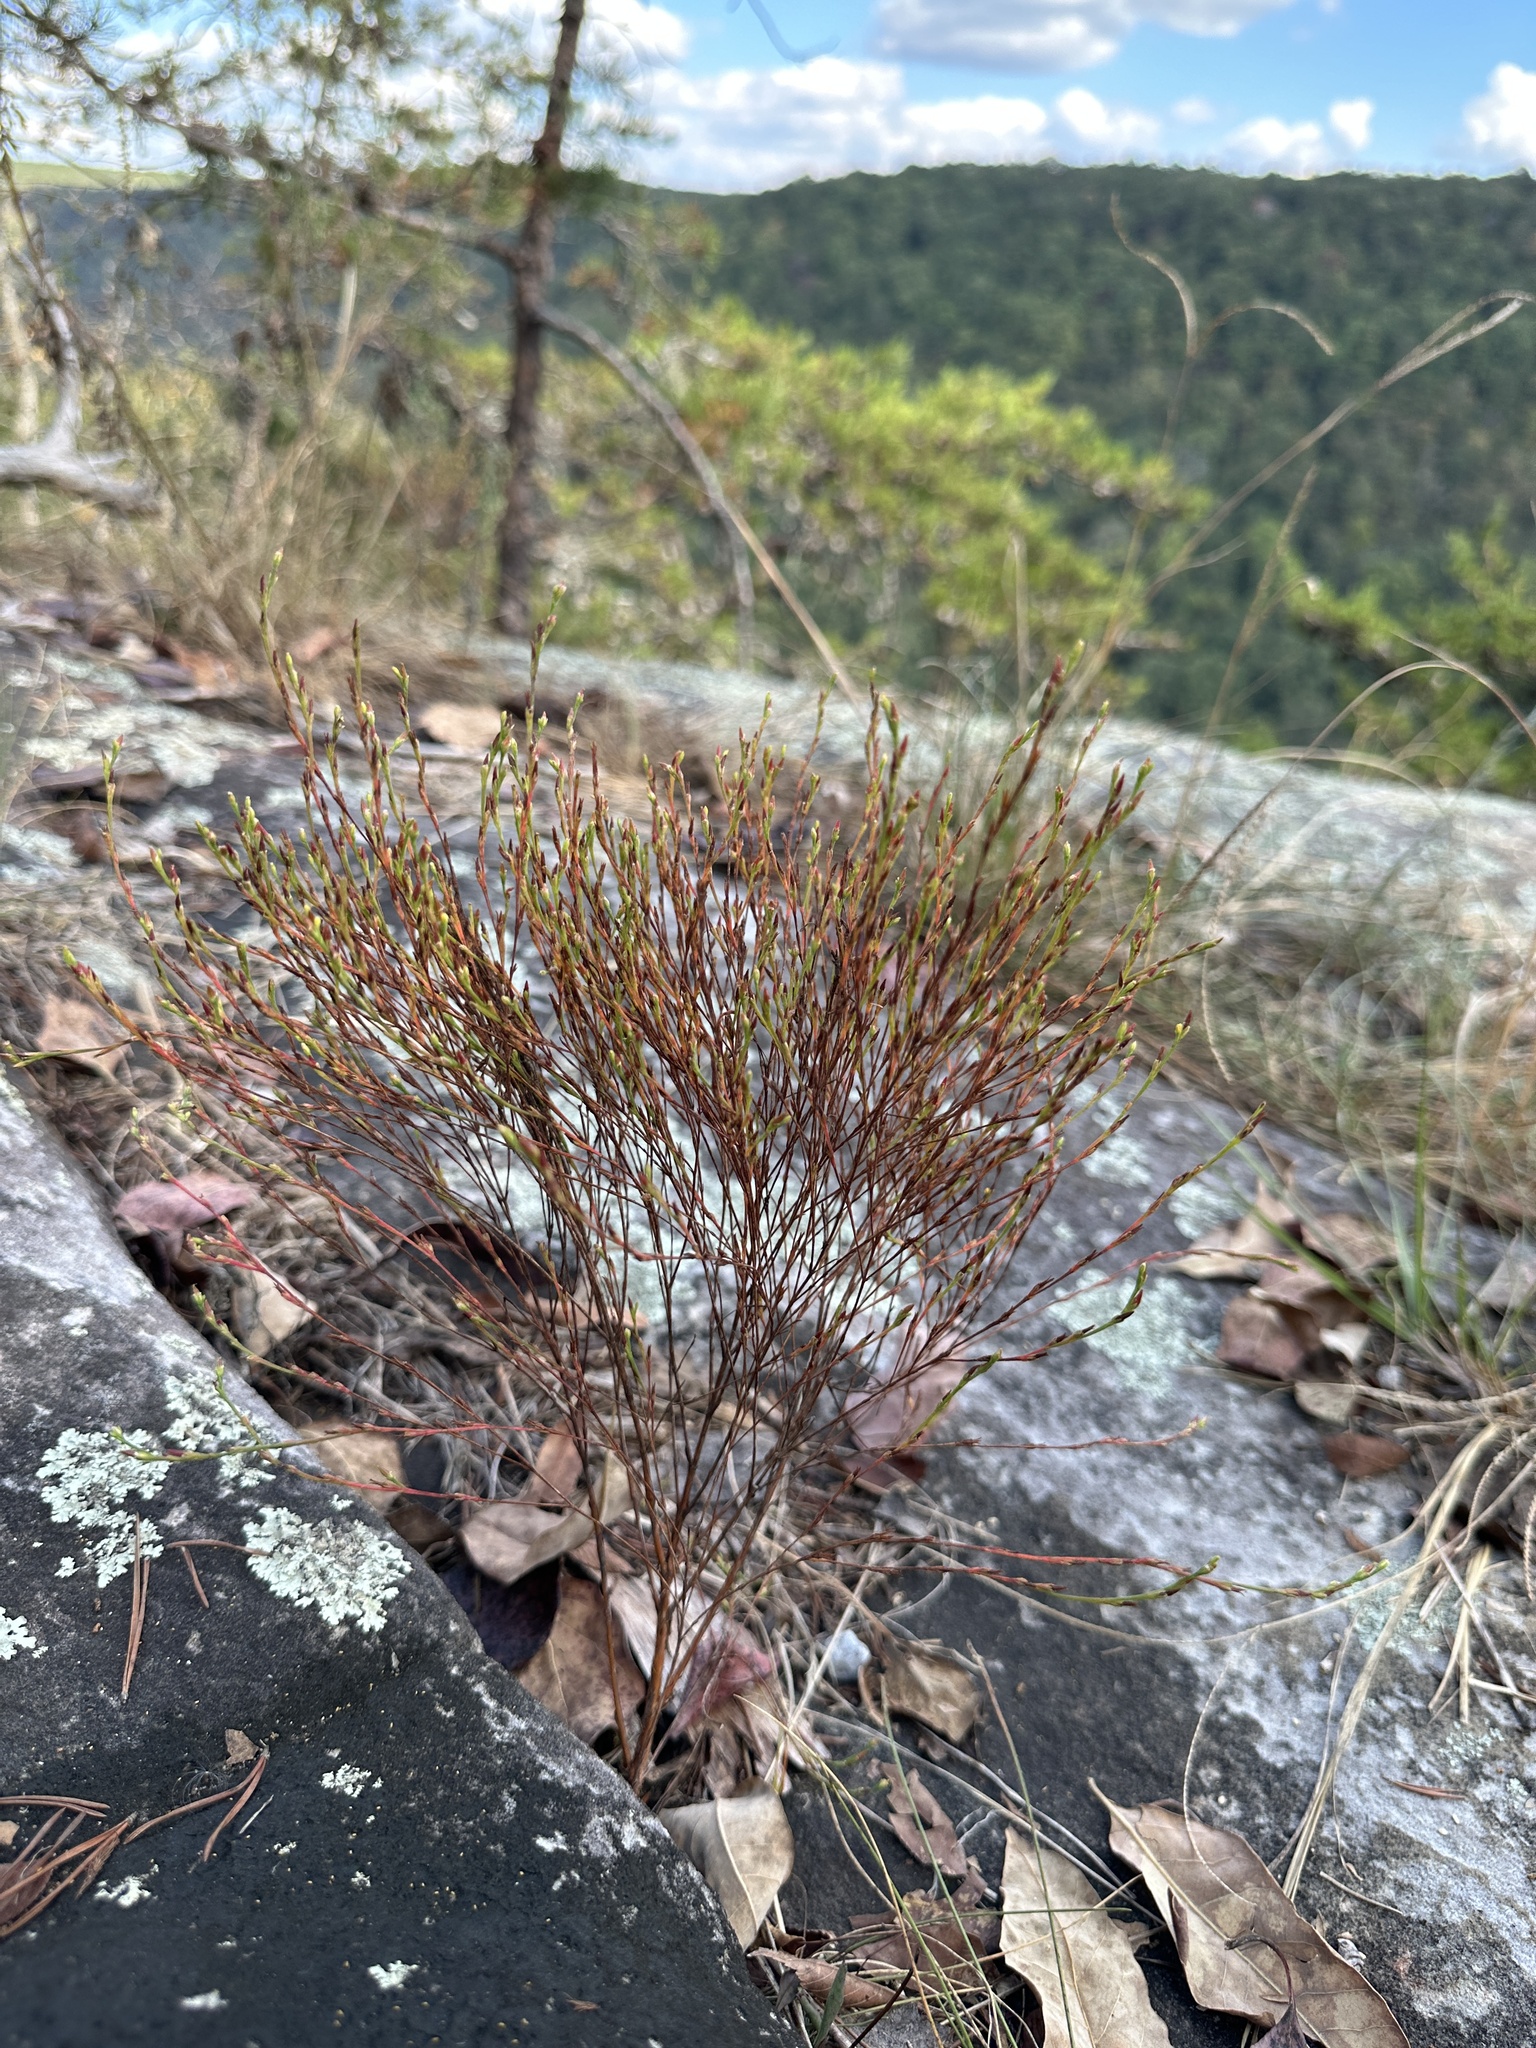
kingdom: Plantae
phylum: Tracheophyta
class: Magnoliopsida
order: Malpighiales
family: Hypericaceae
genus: Hypericum
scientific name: Hypericum gentianoides
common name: Gentian-leaved st. john's-wort
